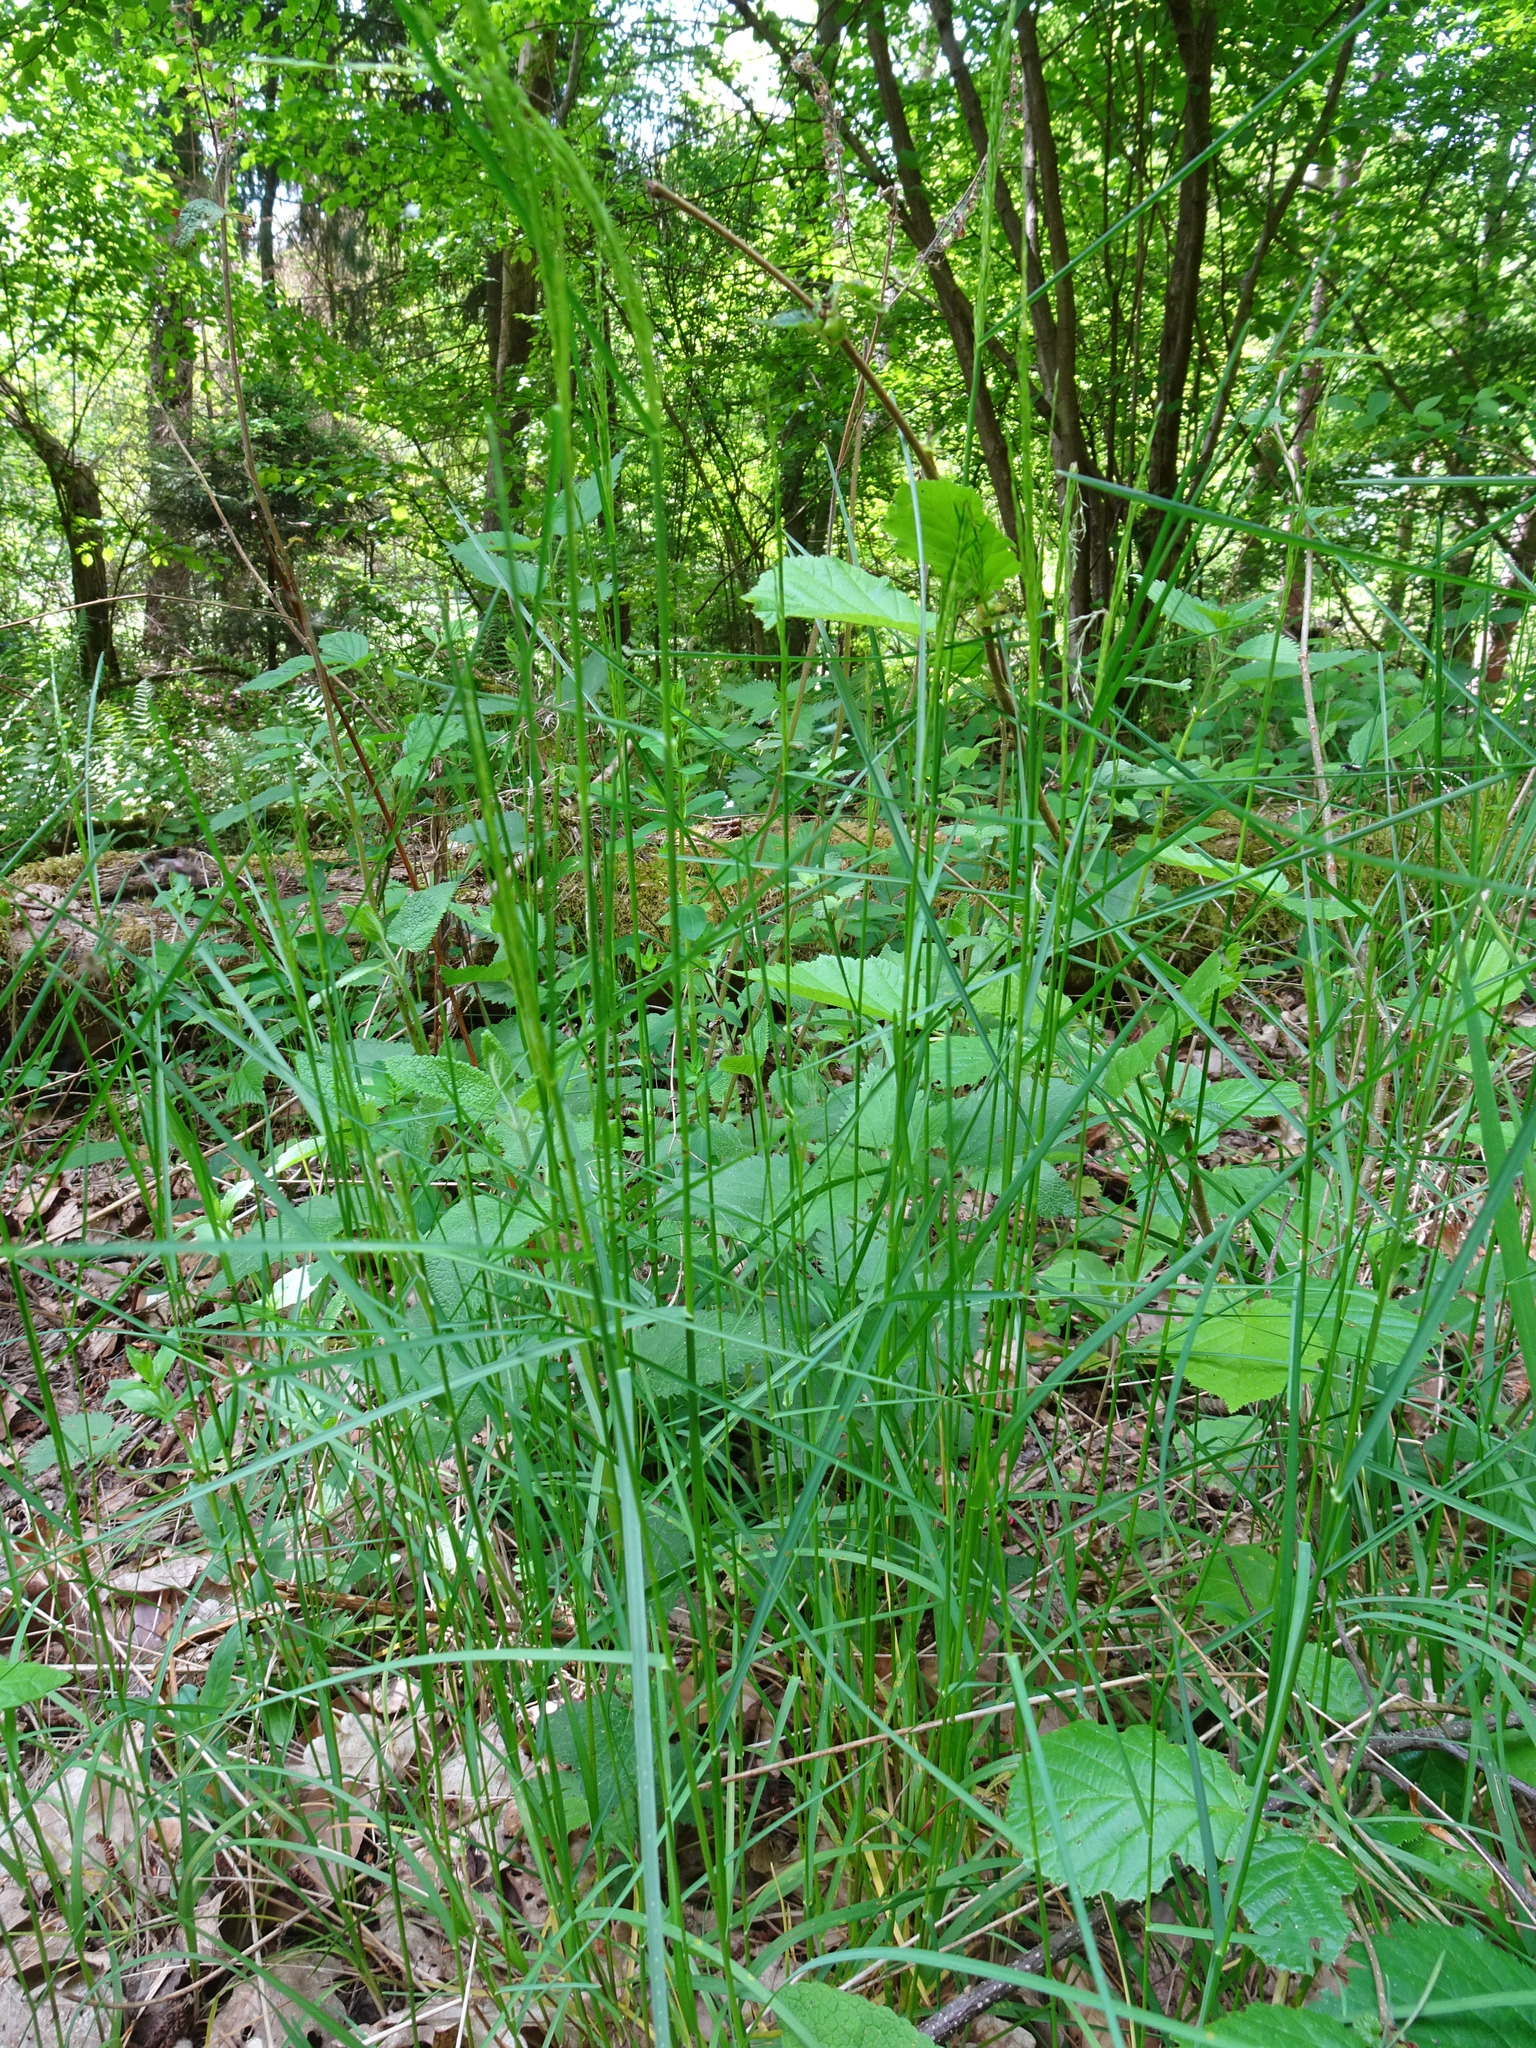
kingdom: Plantae
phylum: Tracheophyta
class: Liliopsida
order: Poales
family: Poaceae
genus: Poa
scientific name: Poa nemoralis
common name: Wood bluegrass
